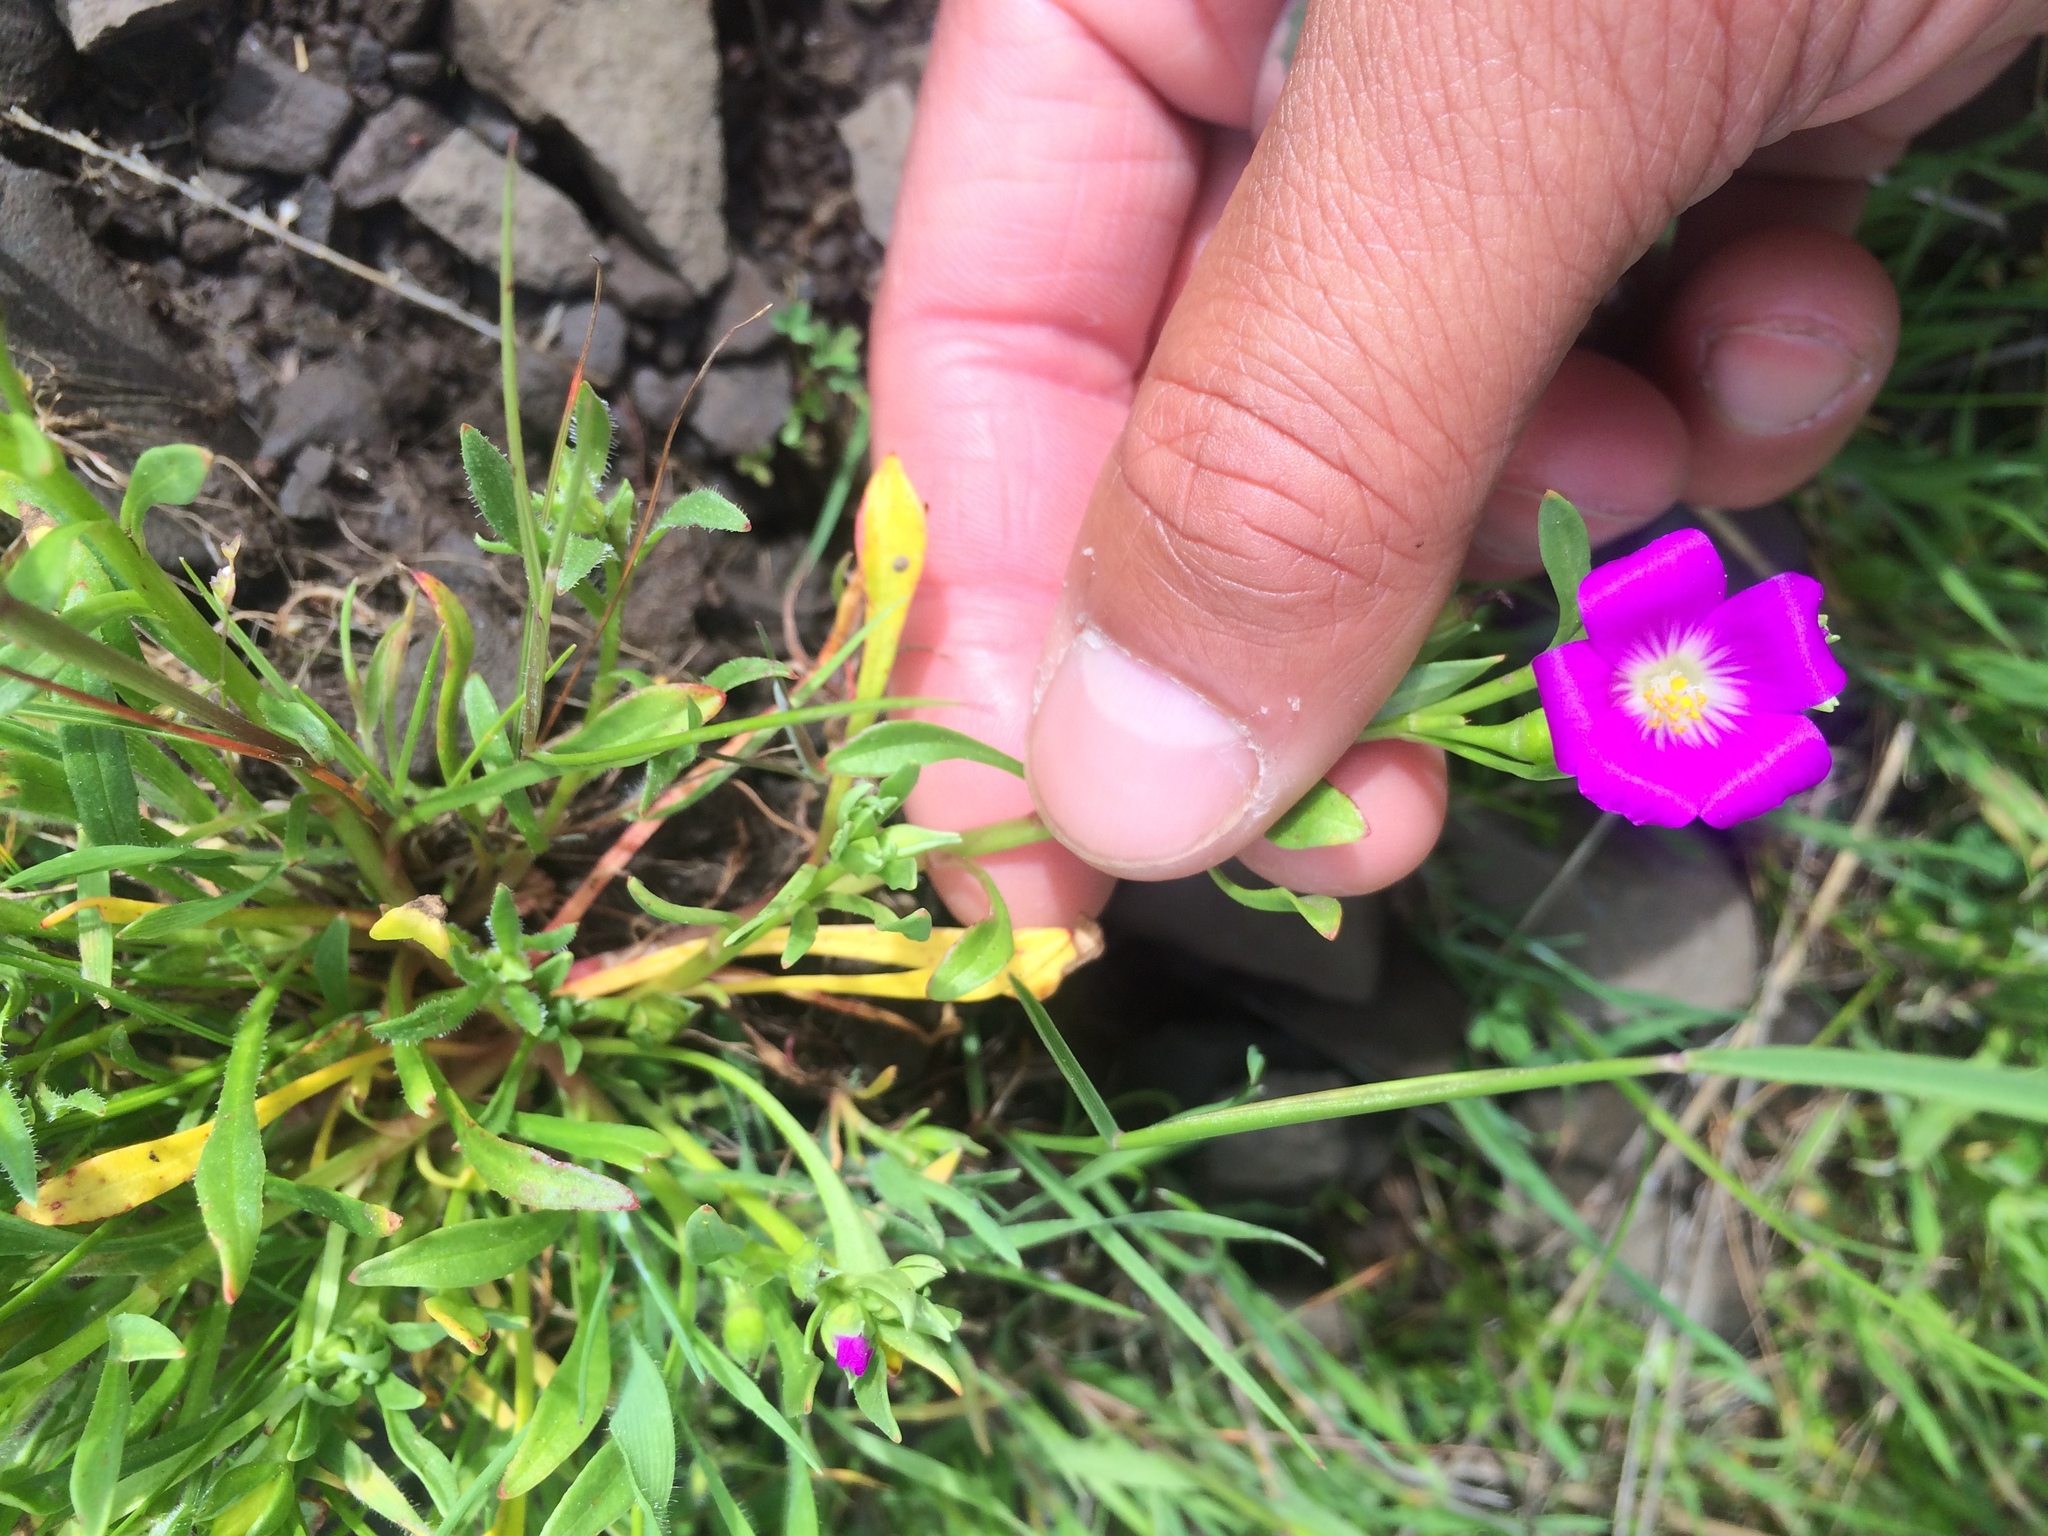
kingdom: Plantae
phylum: Tracheophyta
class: Magnoliopsida
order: Caryophyllales
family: Montiaceae
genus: Calandrinia
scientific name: Calandrinia menziesii
